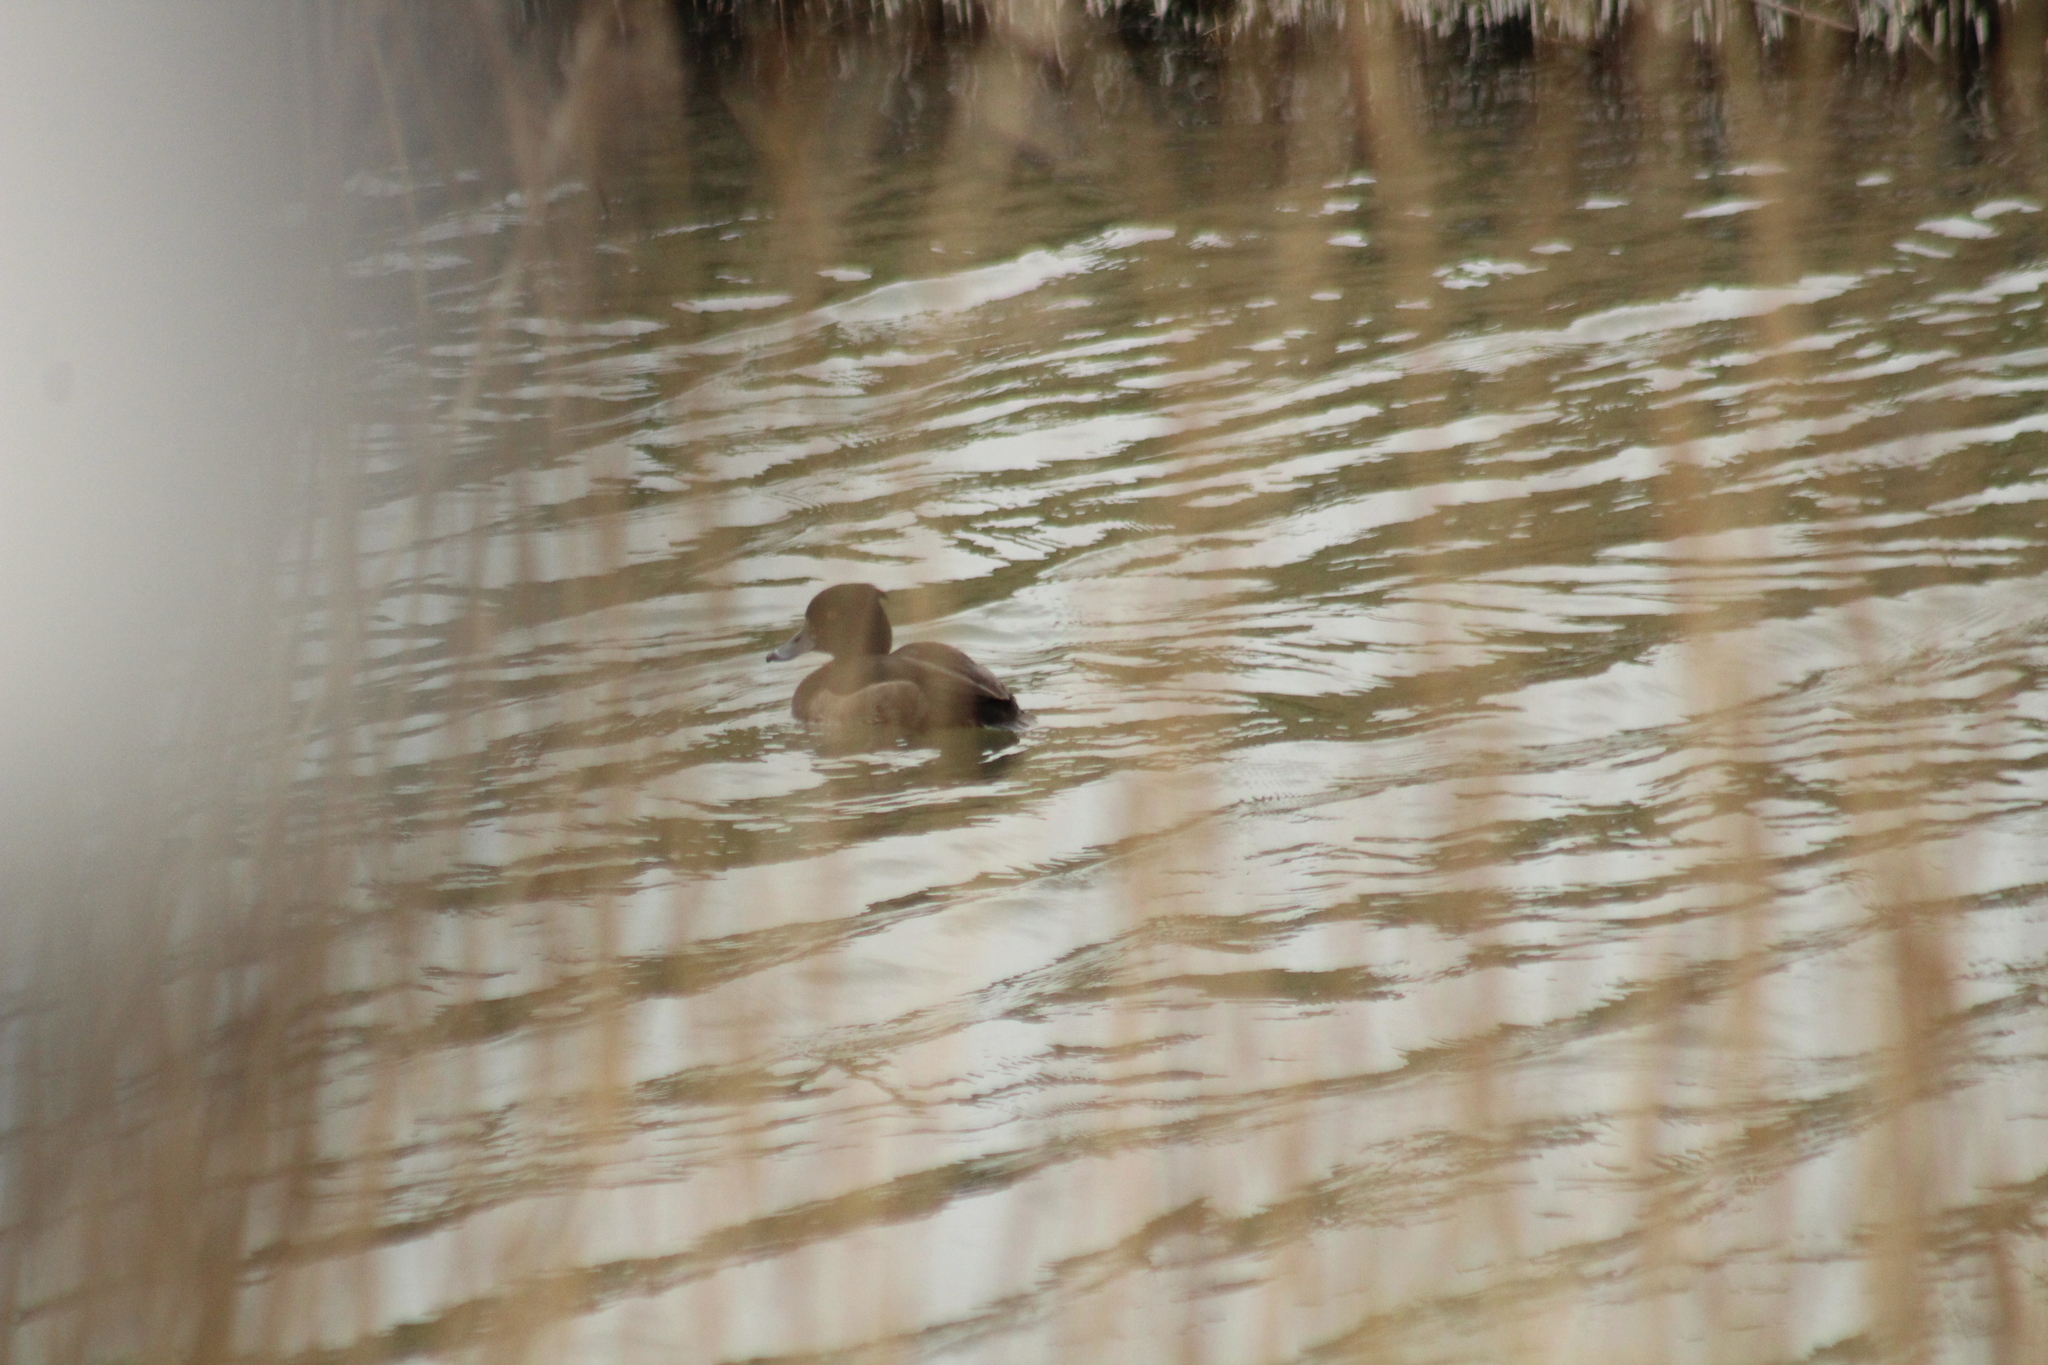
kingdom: Animalia
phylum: Chordata
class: Aves
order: Anseriformes
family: Anatidae
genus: Aythya
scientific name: Aythya fuligula
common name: Tufted duck
